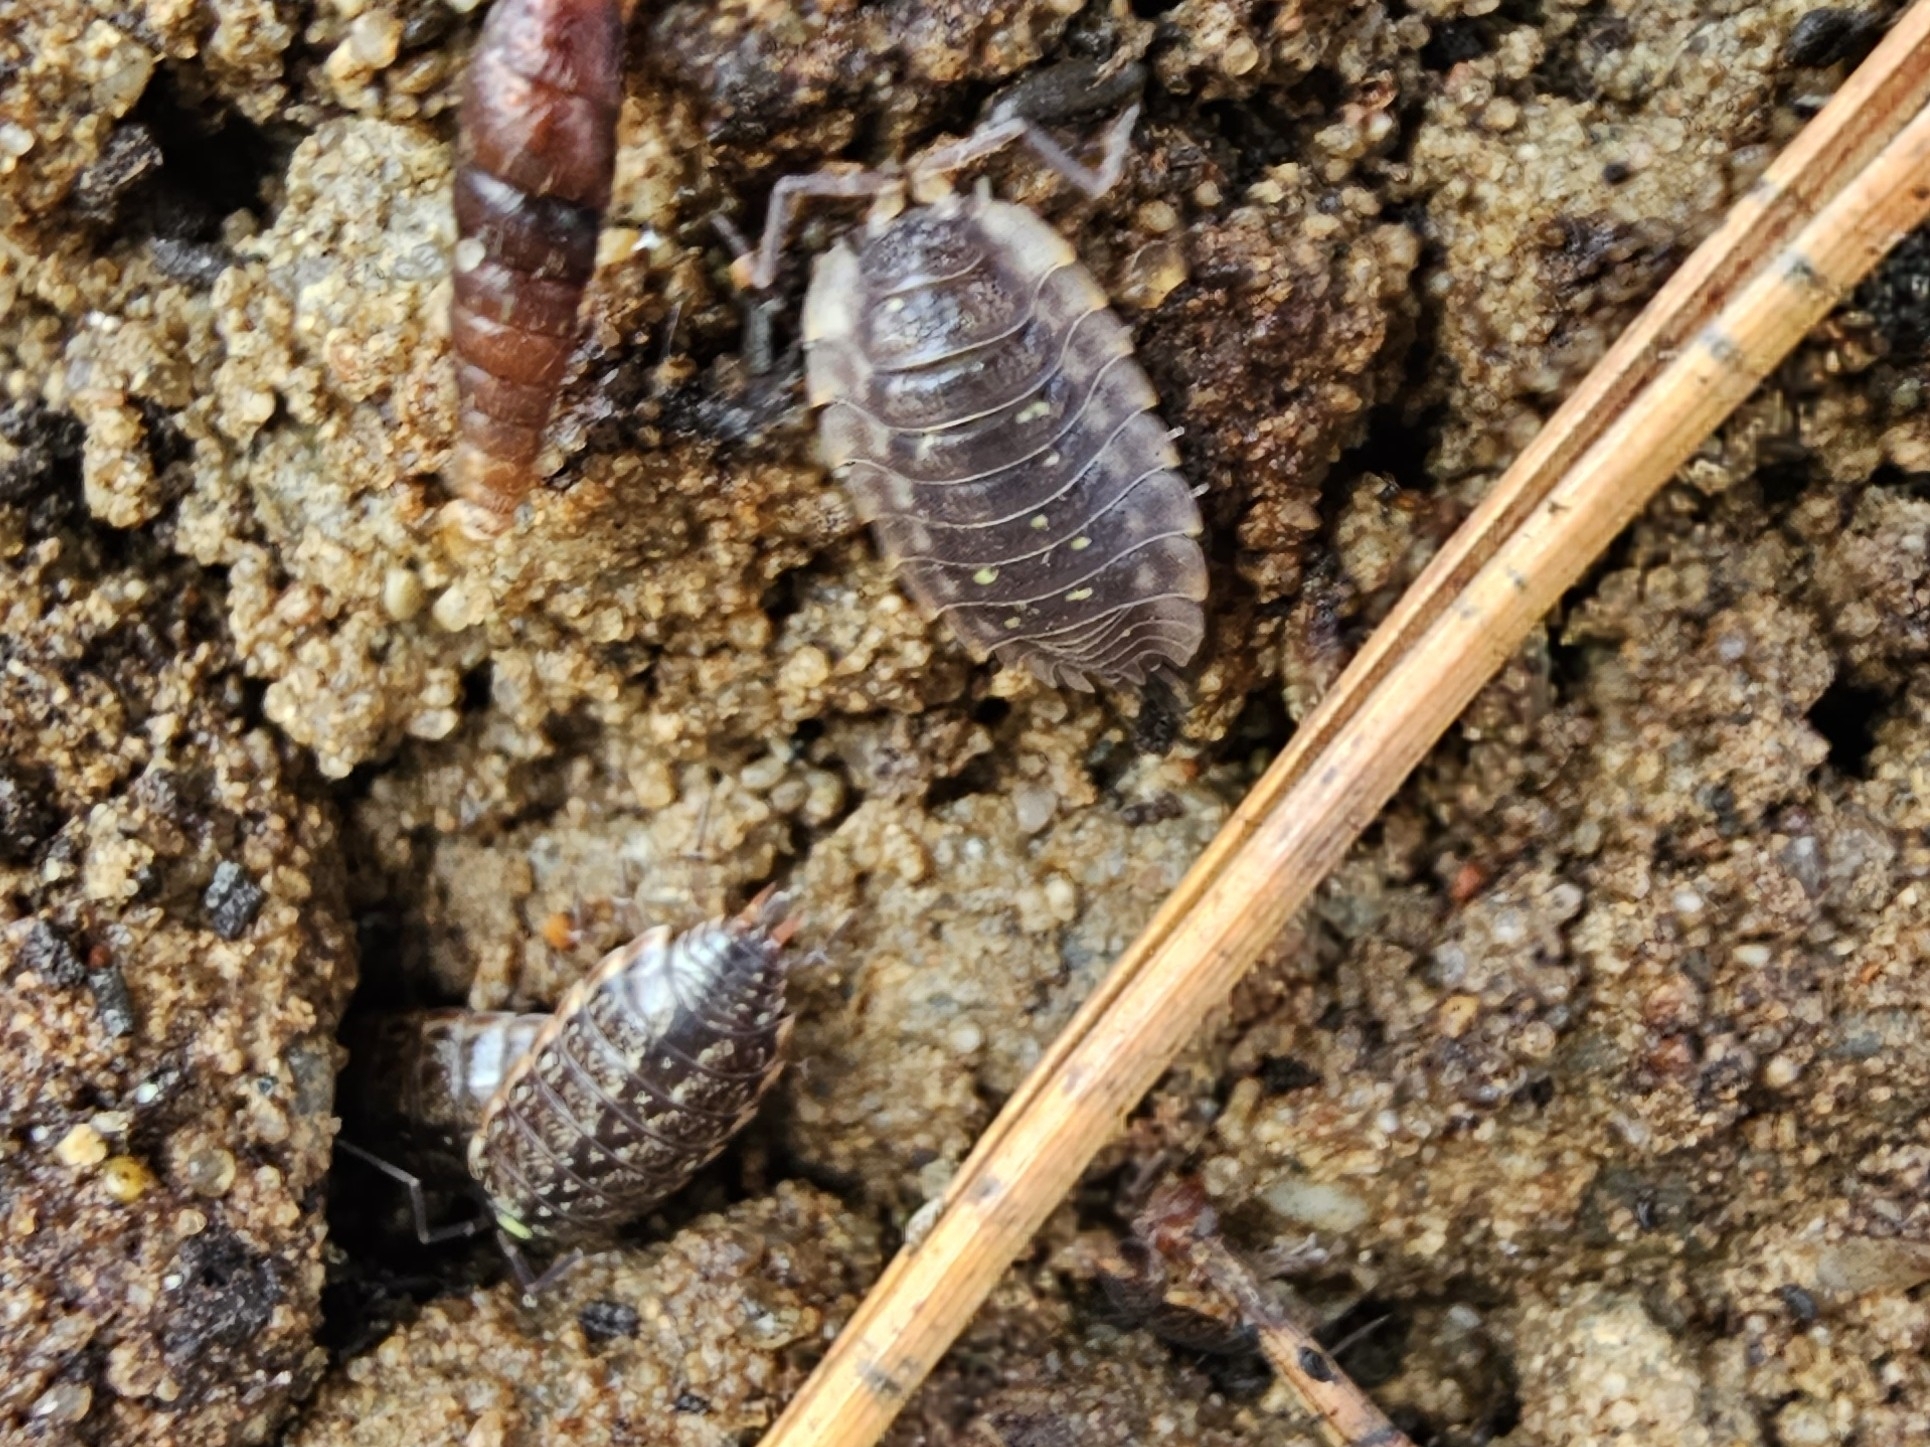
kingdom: Animalia
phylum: Arthropoda
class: Malacostraca
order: Isopoda
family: Oniscidae
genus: Oniscus
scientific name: Oniscus asellus
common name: Common shiny woodlouse
